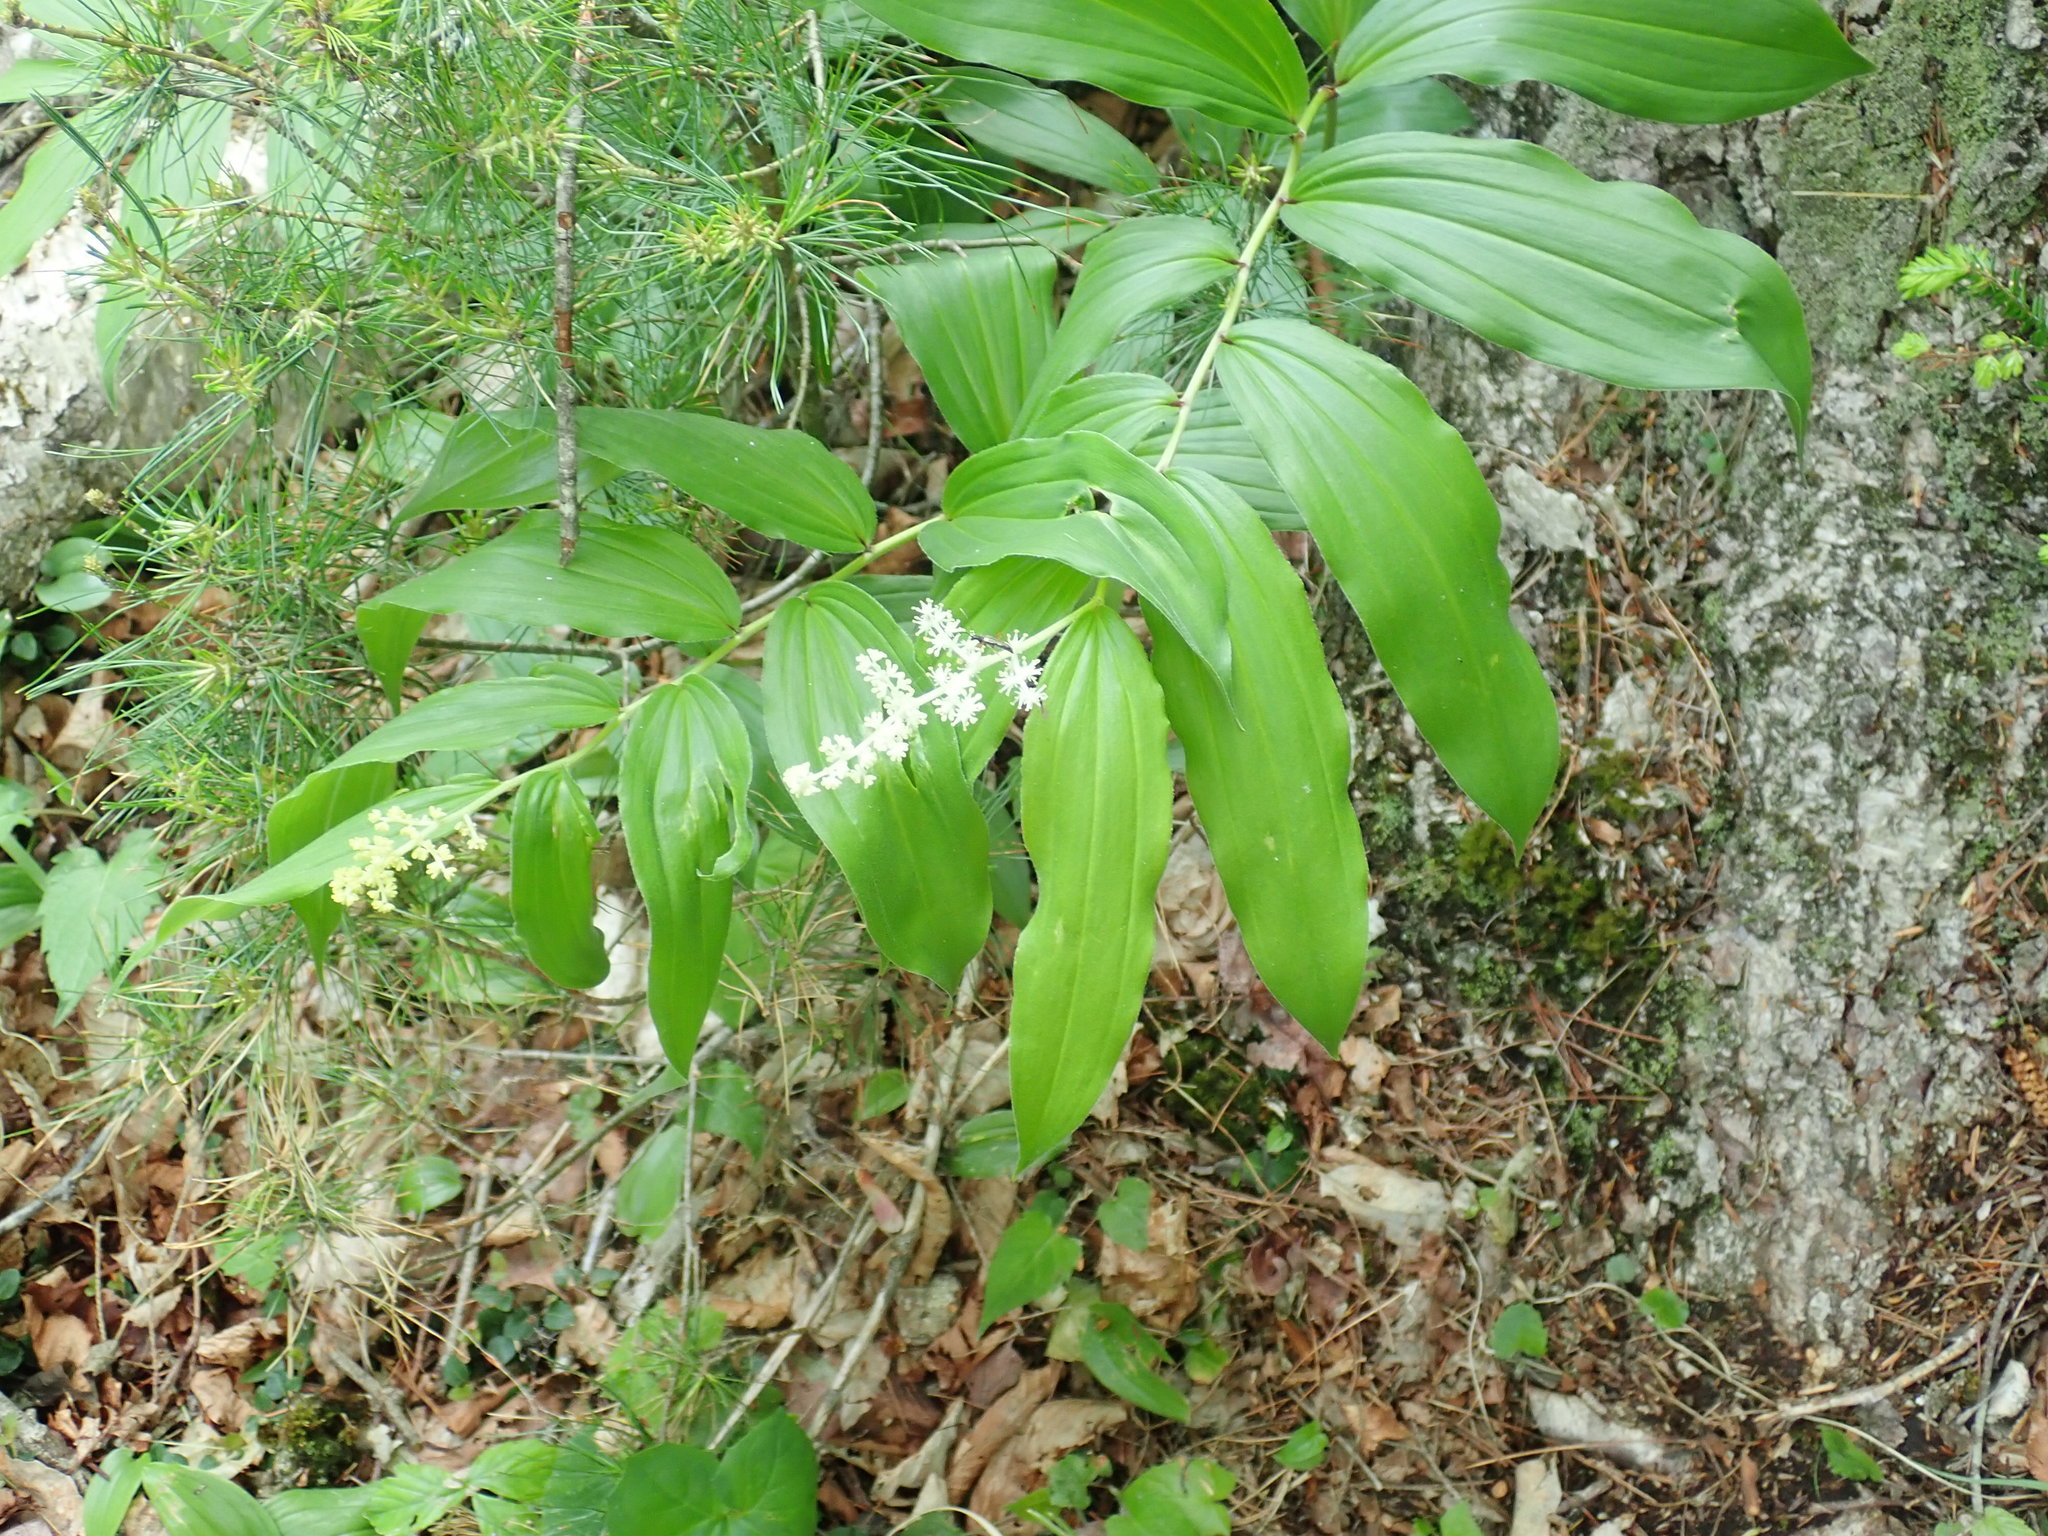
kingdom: Plantae
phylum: Tracheophyta
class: Liliopsida
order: Asparagales
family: Asparagaceae
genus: Maianthemum
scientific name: Maianthemum racemosum
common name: False spikenard
